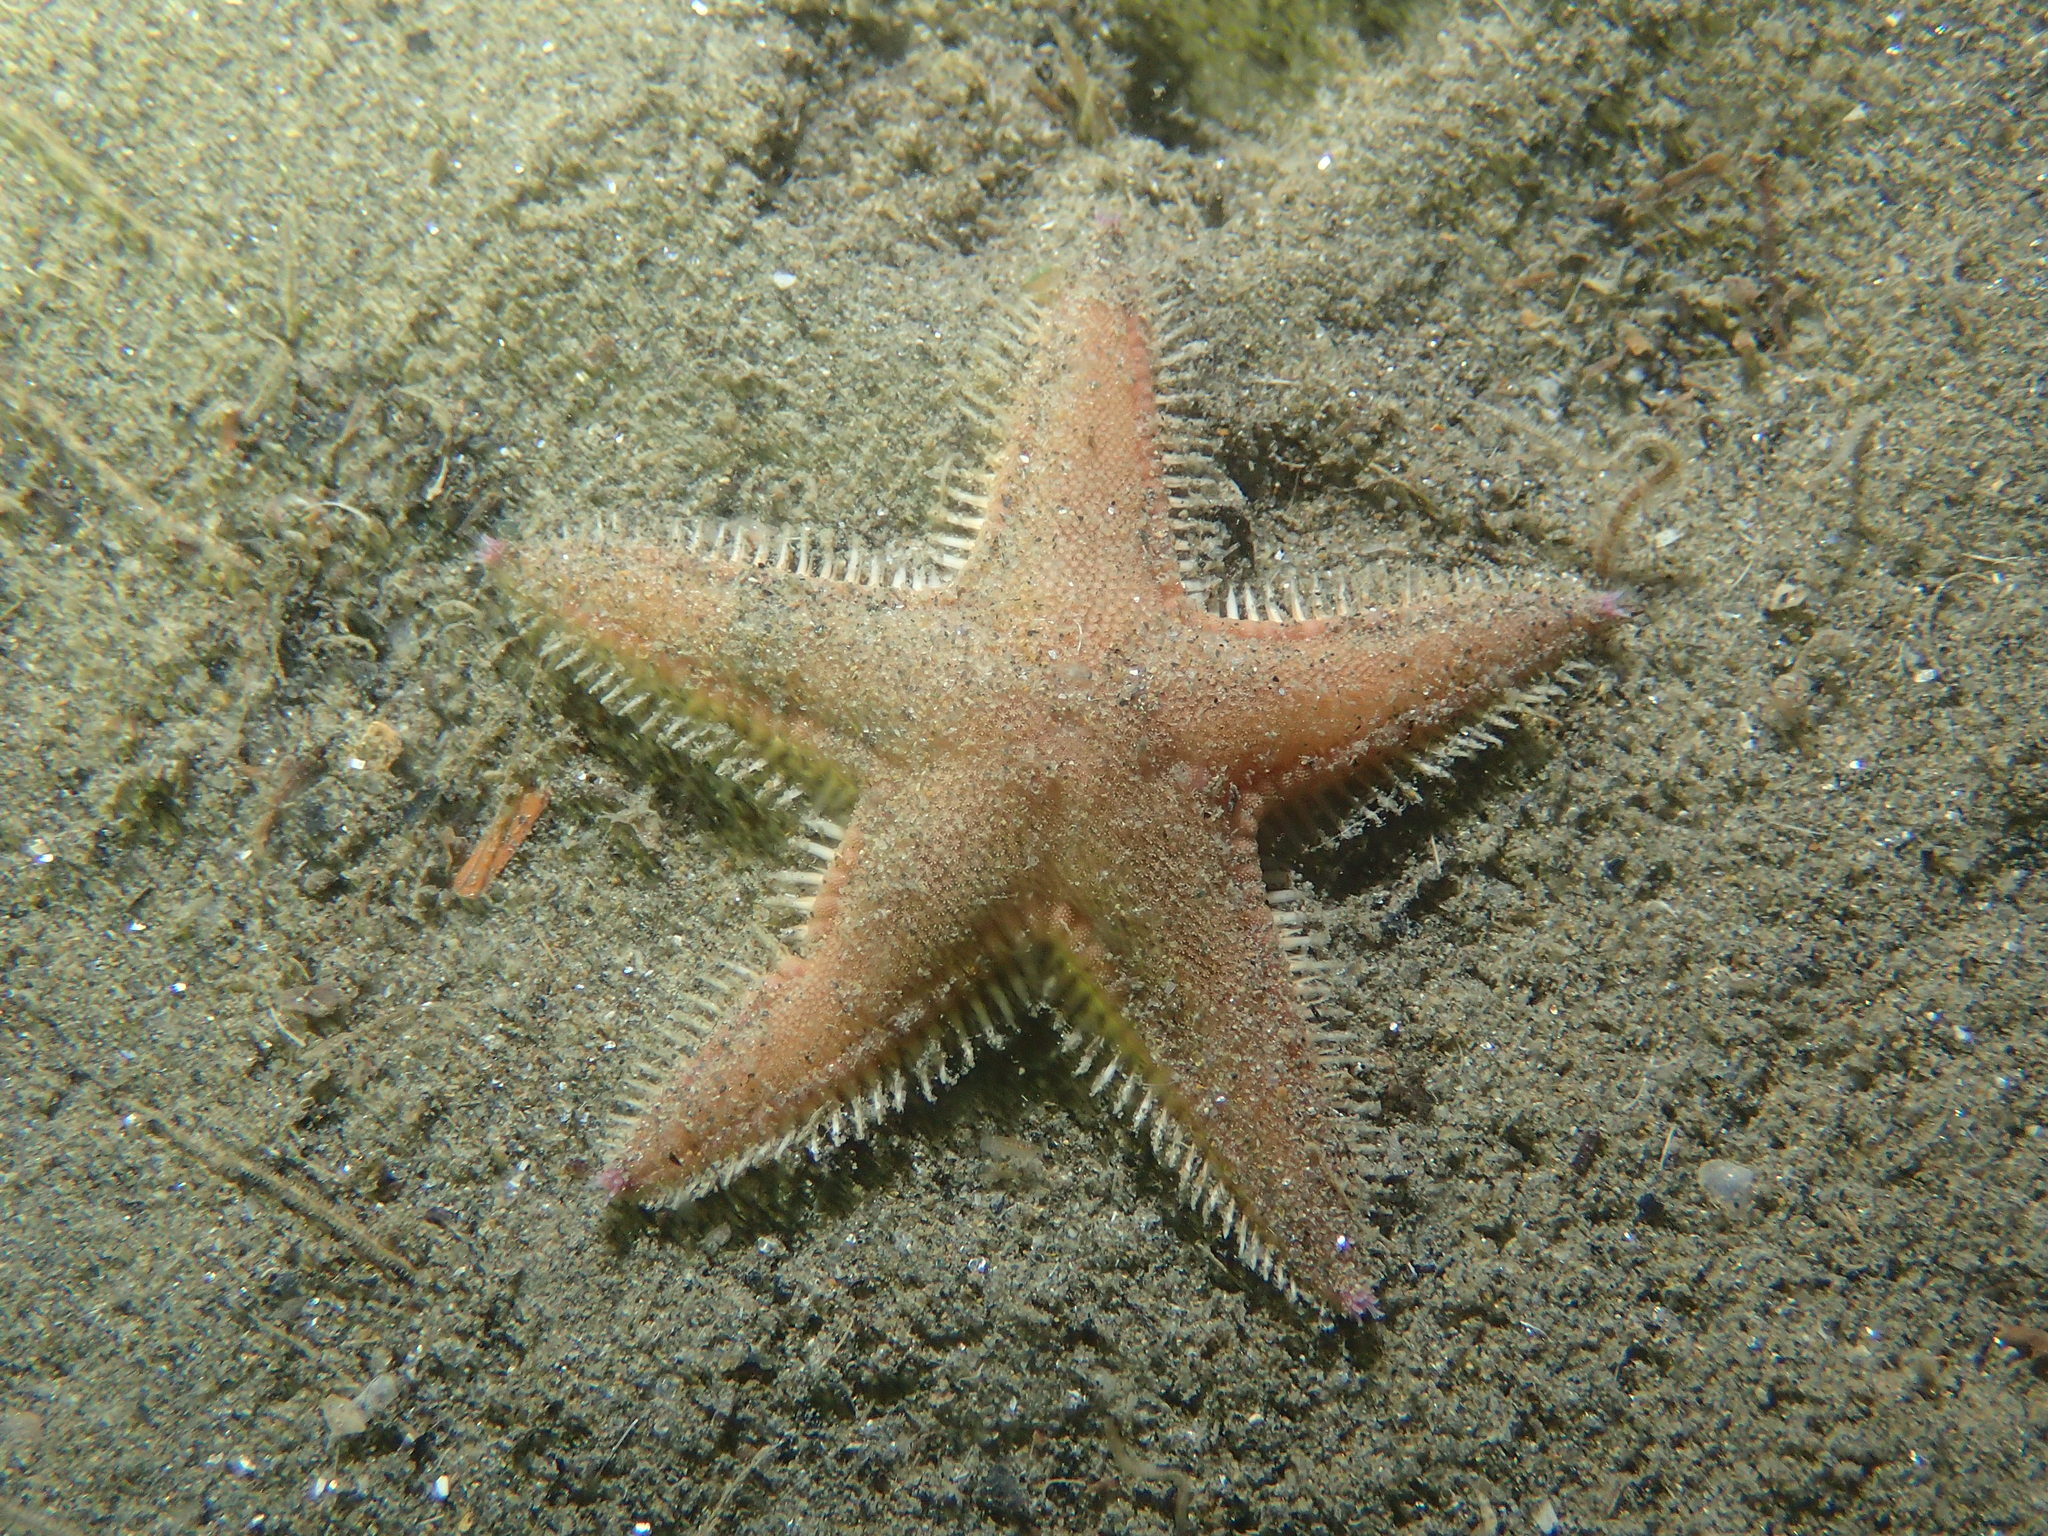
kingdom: Animalia
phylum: Echinodermata
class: Asteroidea
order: Paxillosida
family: Astropectinidae
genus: Astropecten
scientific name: Astropecten irregularis
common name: Sand star
